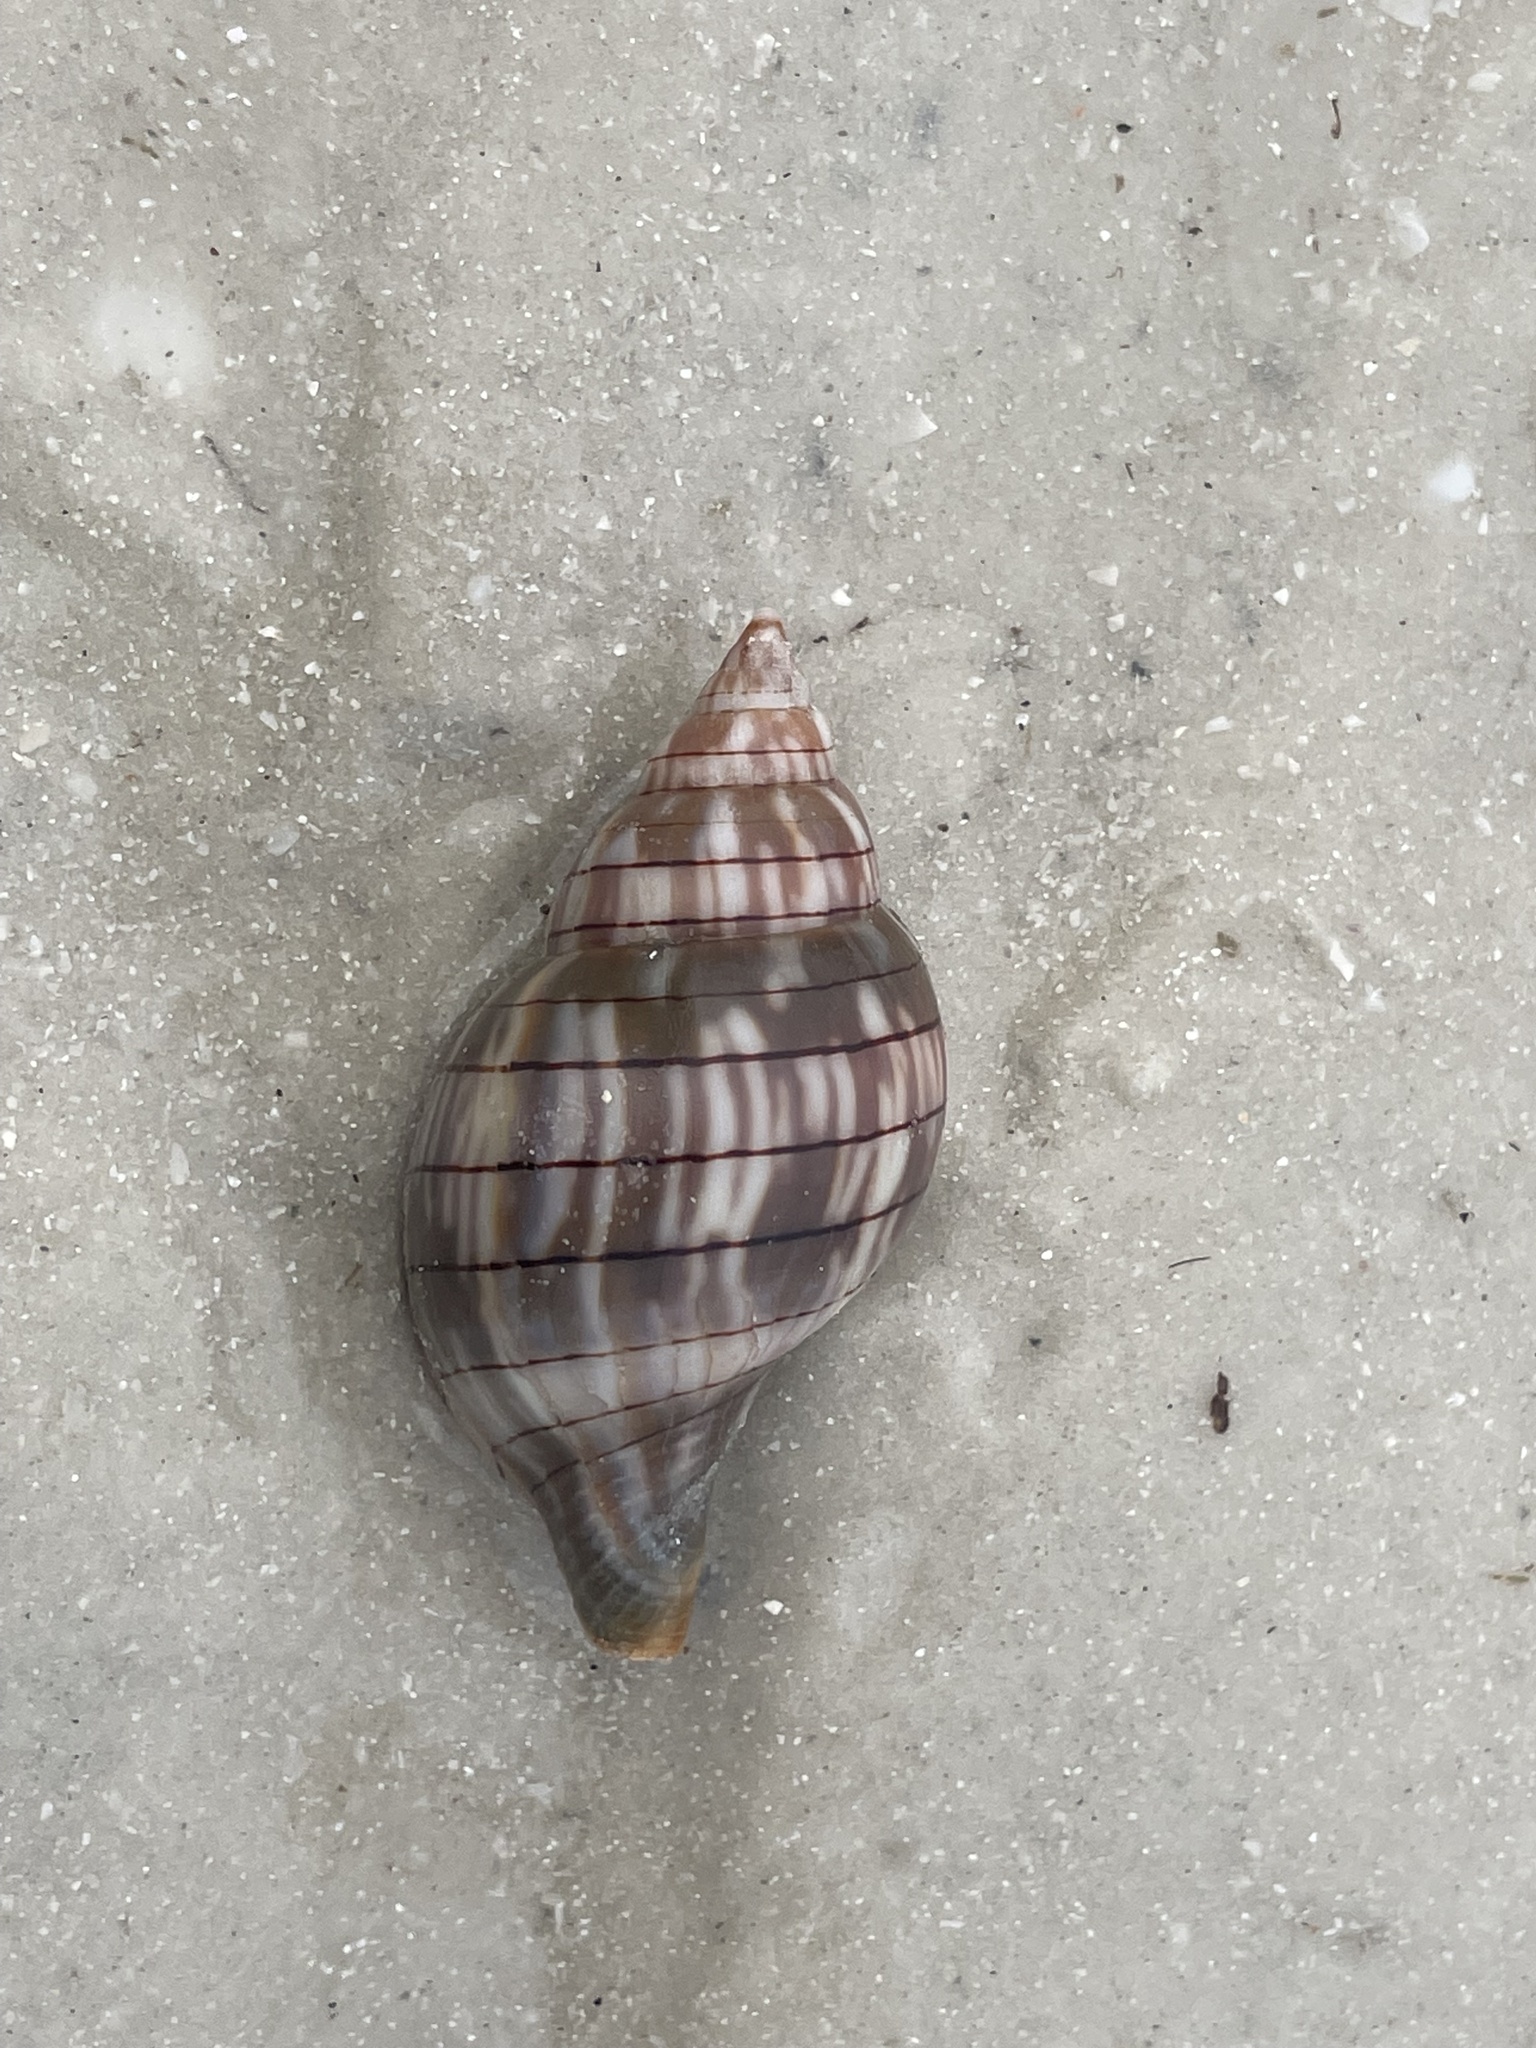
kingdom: Animalia
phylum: Mollusca
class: Gastropoda
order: Neogastropoda
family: Fasciolariidae
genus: Cinctura
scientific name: Cinctura hunteria
